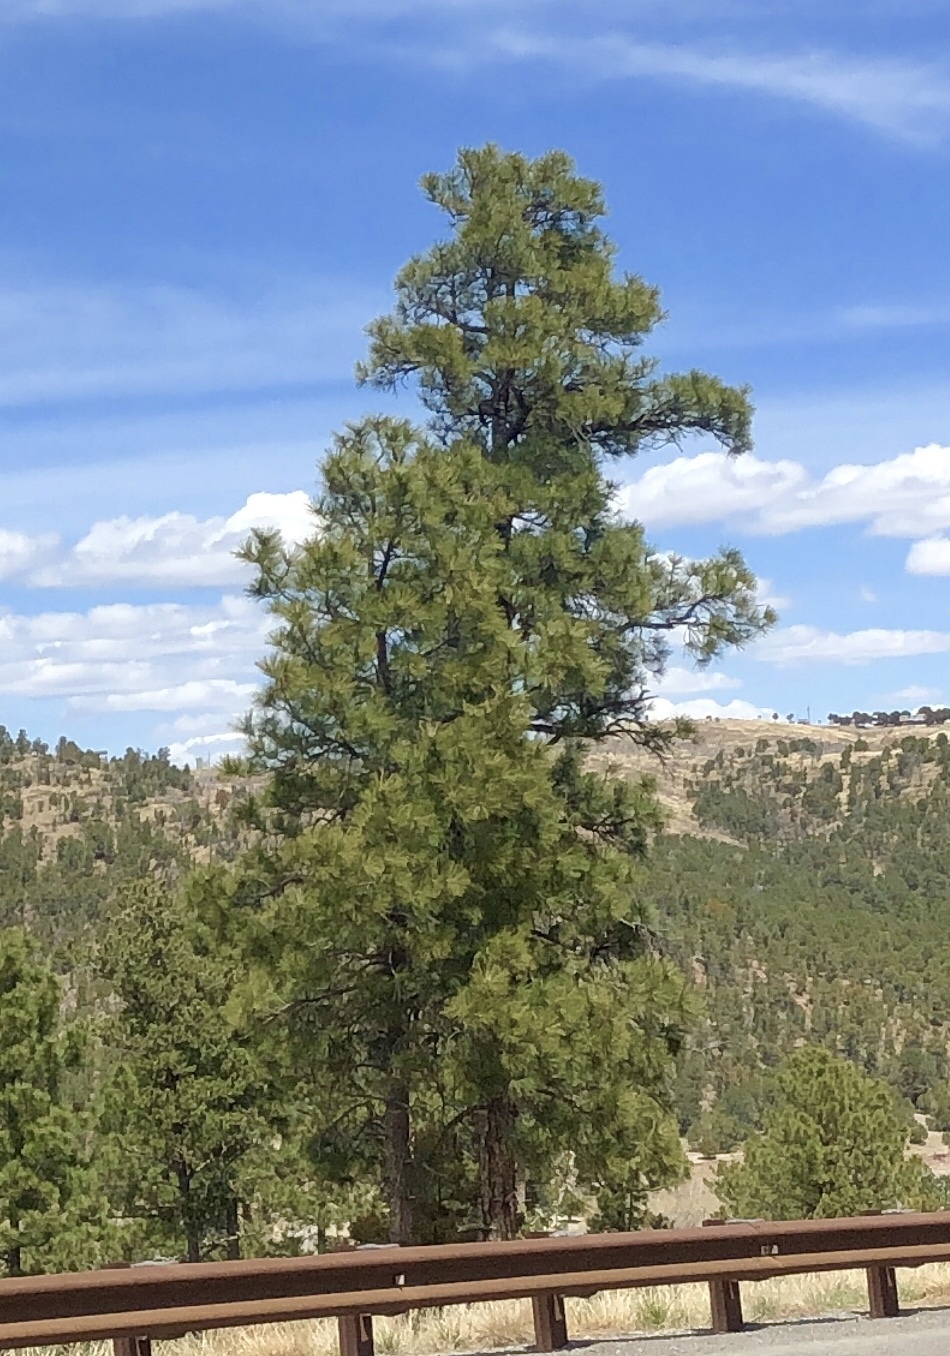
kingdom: Plantae
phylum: Tracheophyta
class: Pinopsida
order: Pinales
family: Pinaceae
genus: Pinus
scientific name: Pinus ponderosa
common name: Western yellow-pine
